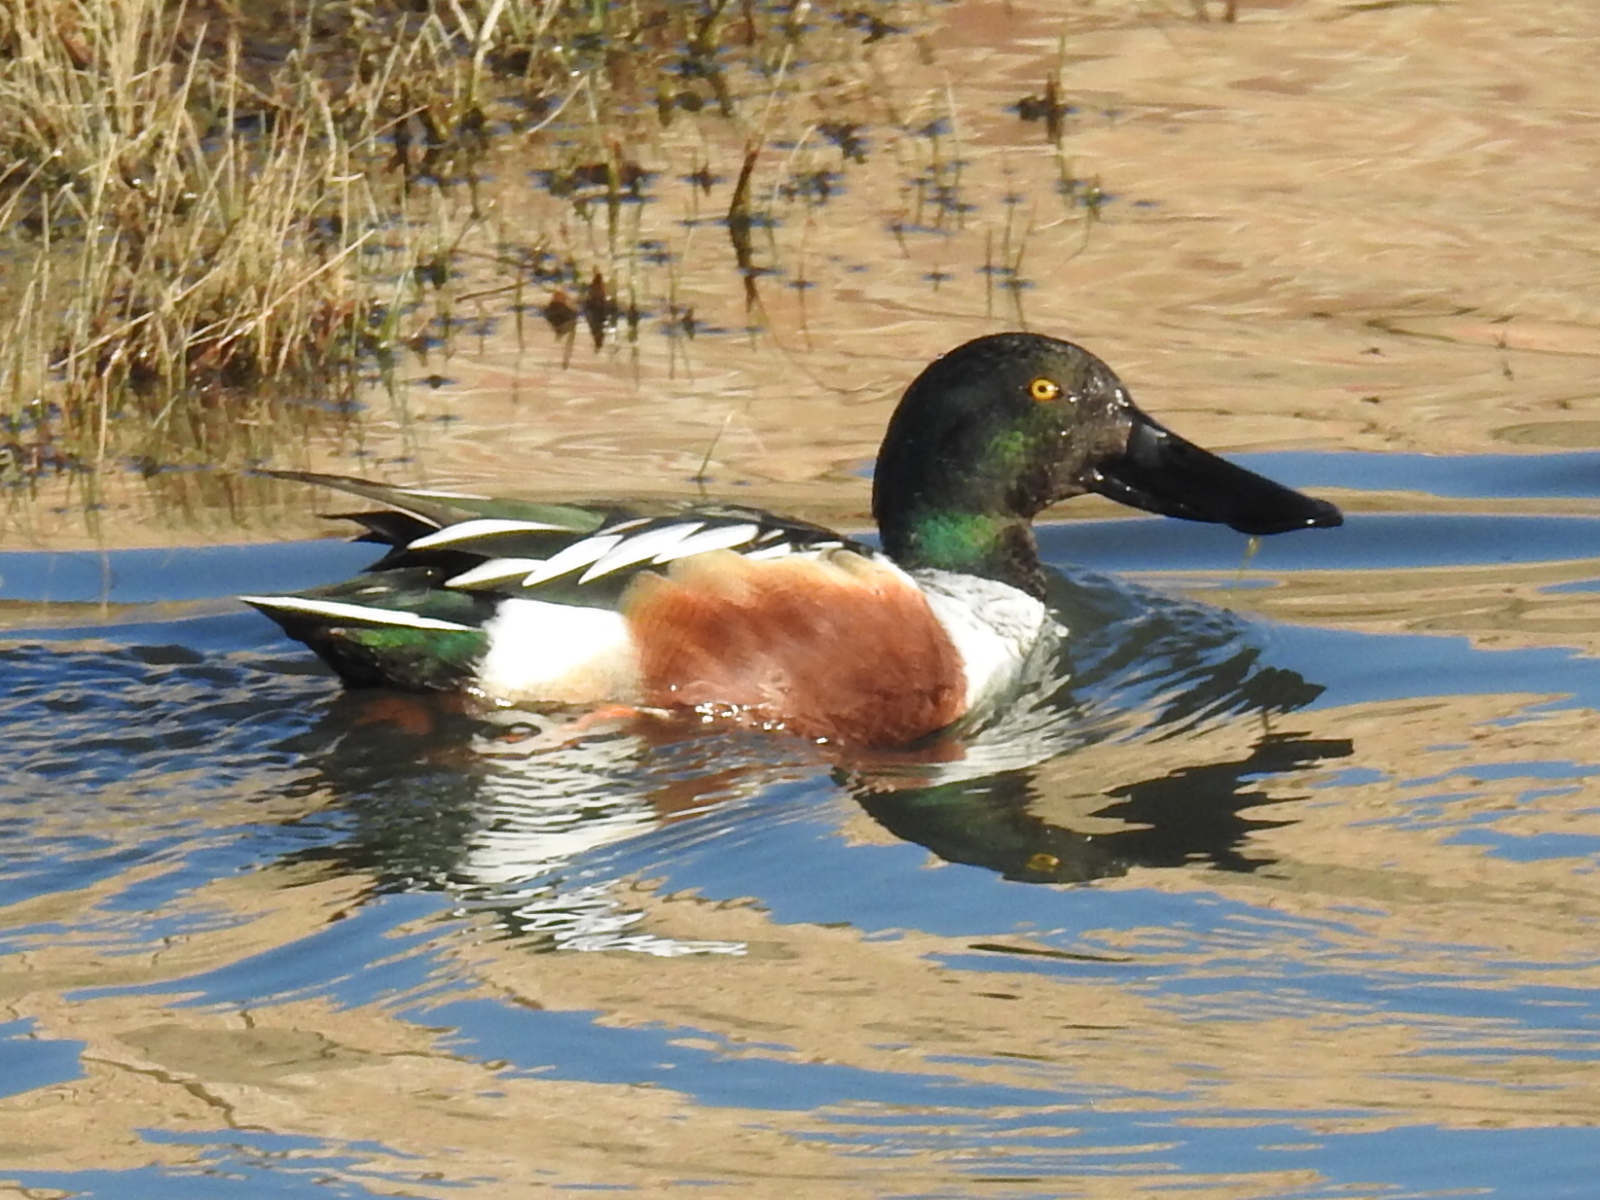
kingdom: Animalia
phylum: Chordata
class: Aves
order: Anseriformes
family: Anatidae
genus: Spatula
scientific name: Spatula clypeata
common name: Northern shoveler
